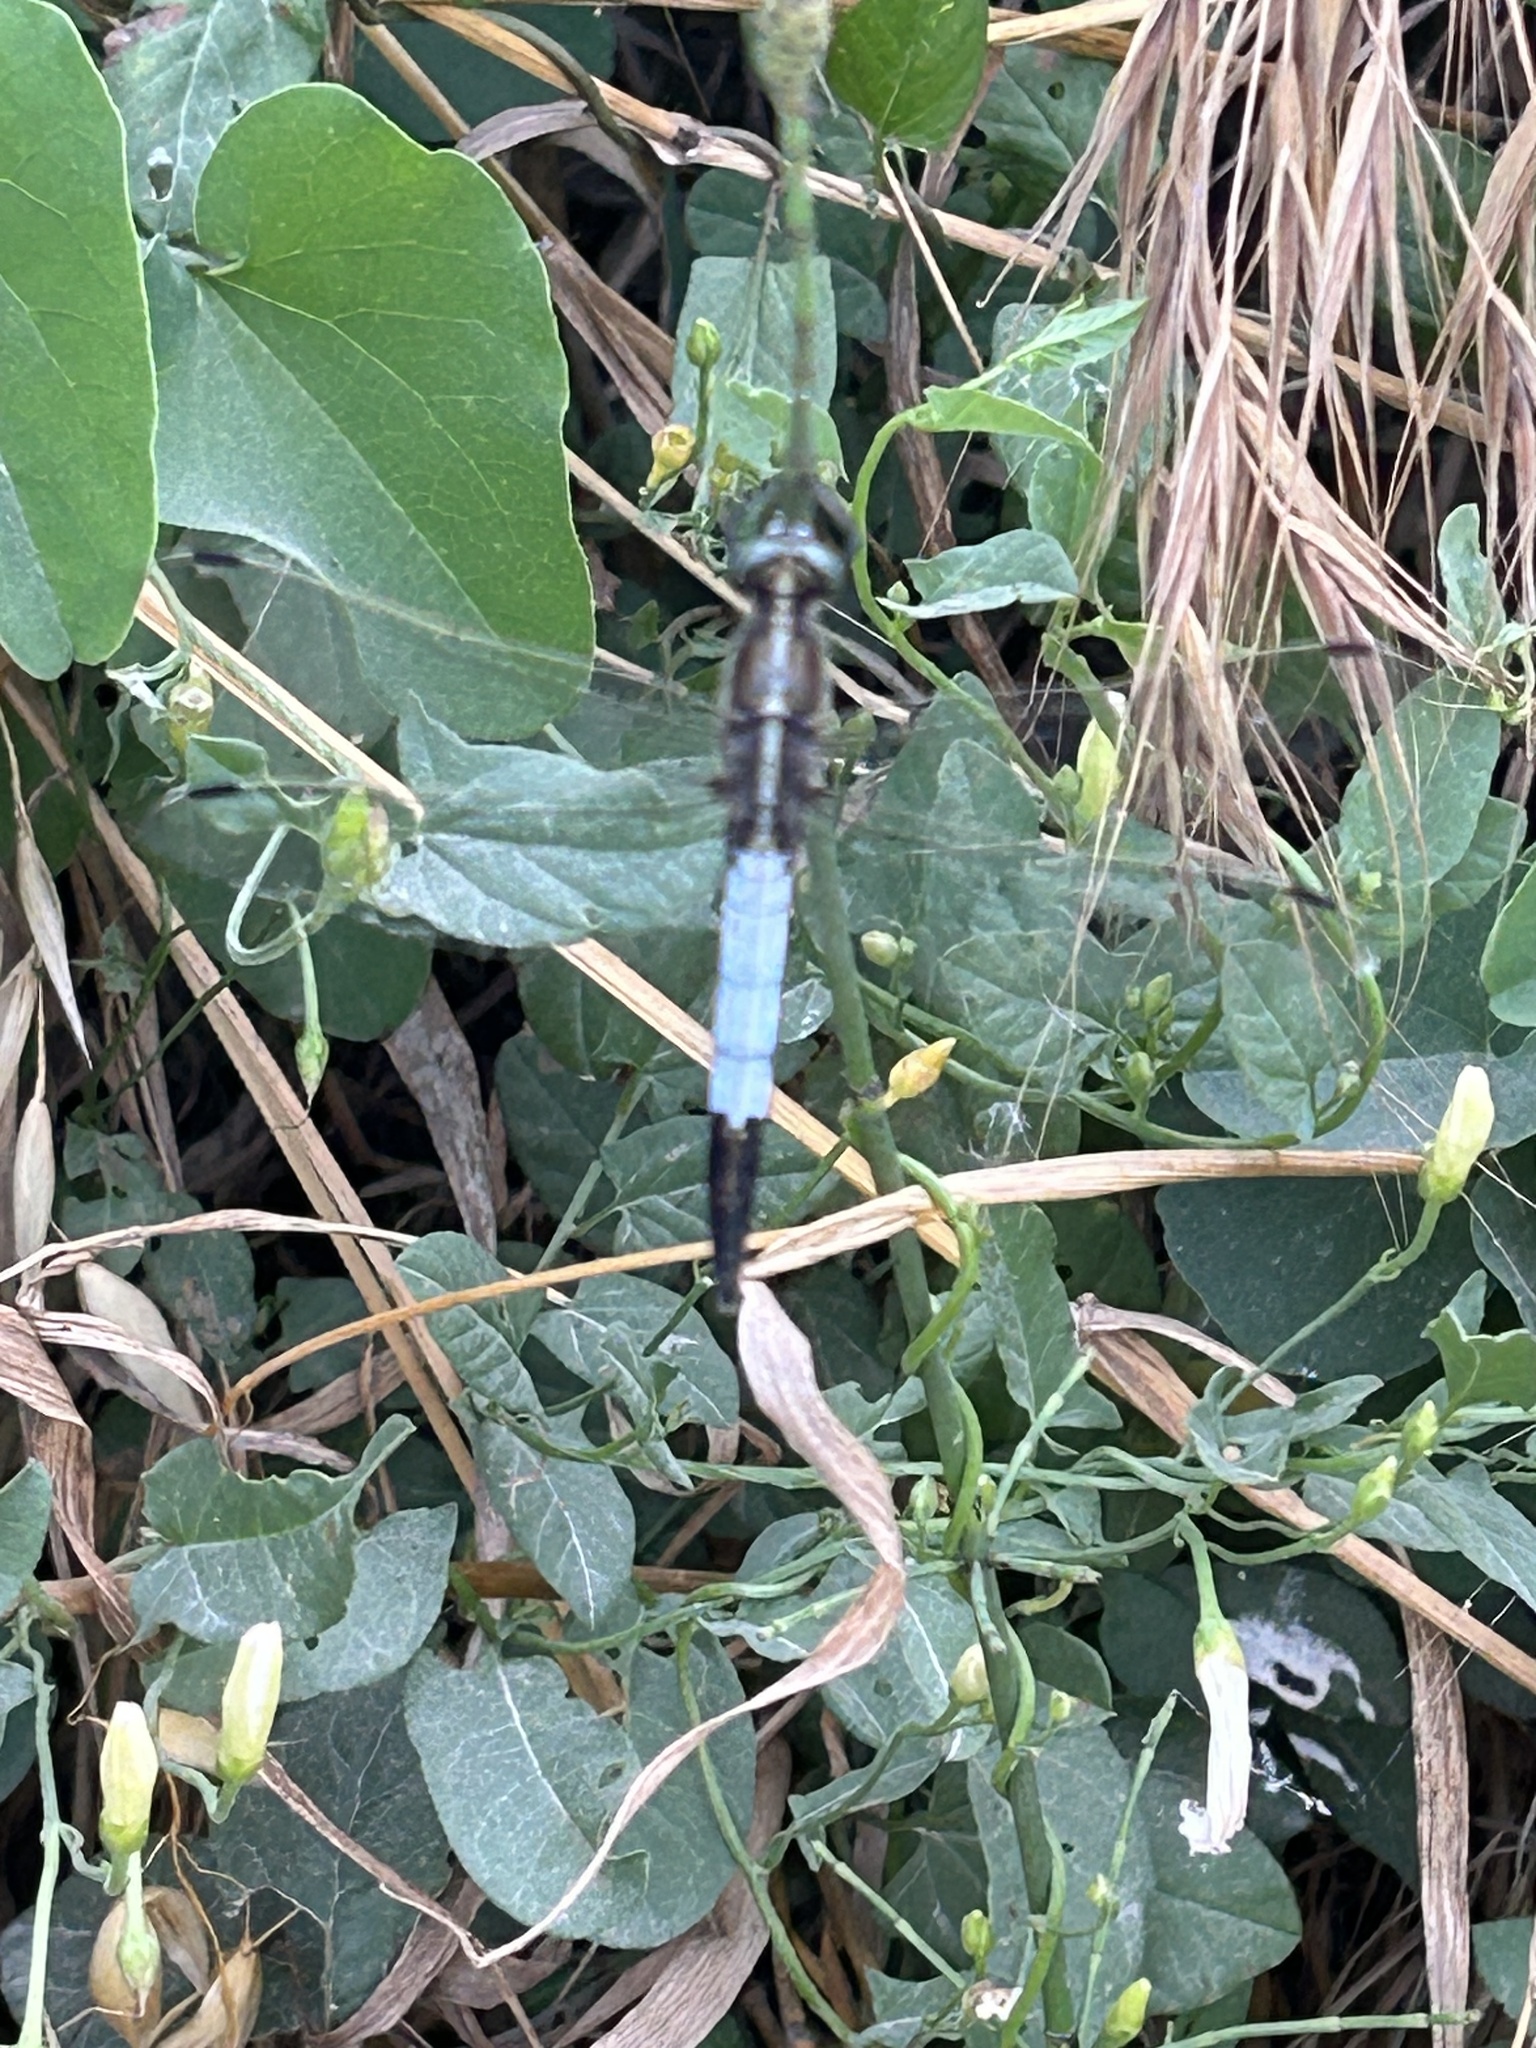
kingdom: Animalia
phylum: Arthropoda
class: Insecta
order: Odonata
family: Libellulidae
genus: Orthetrum
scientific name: Orthetrum albistylum
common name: White-tailed skimmer
